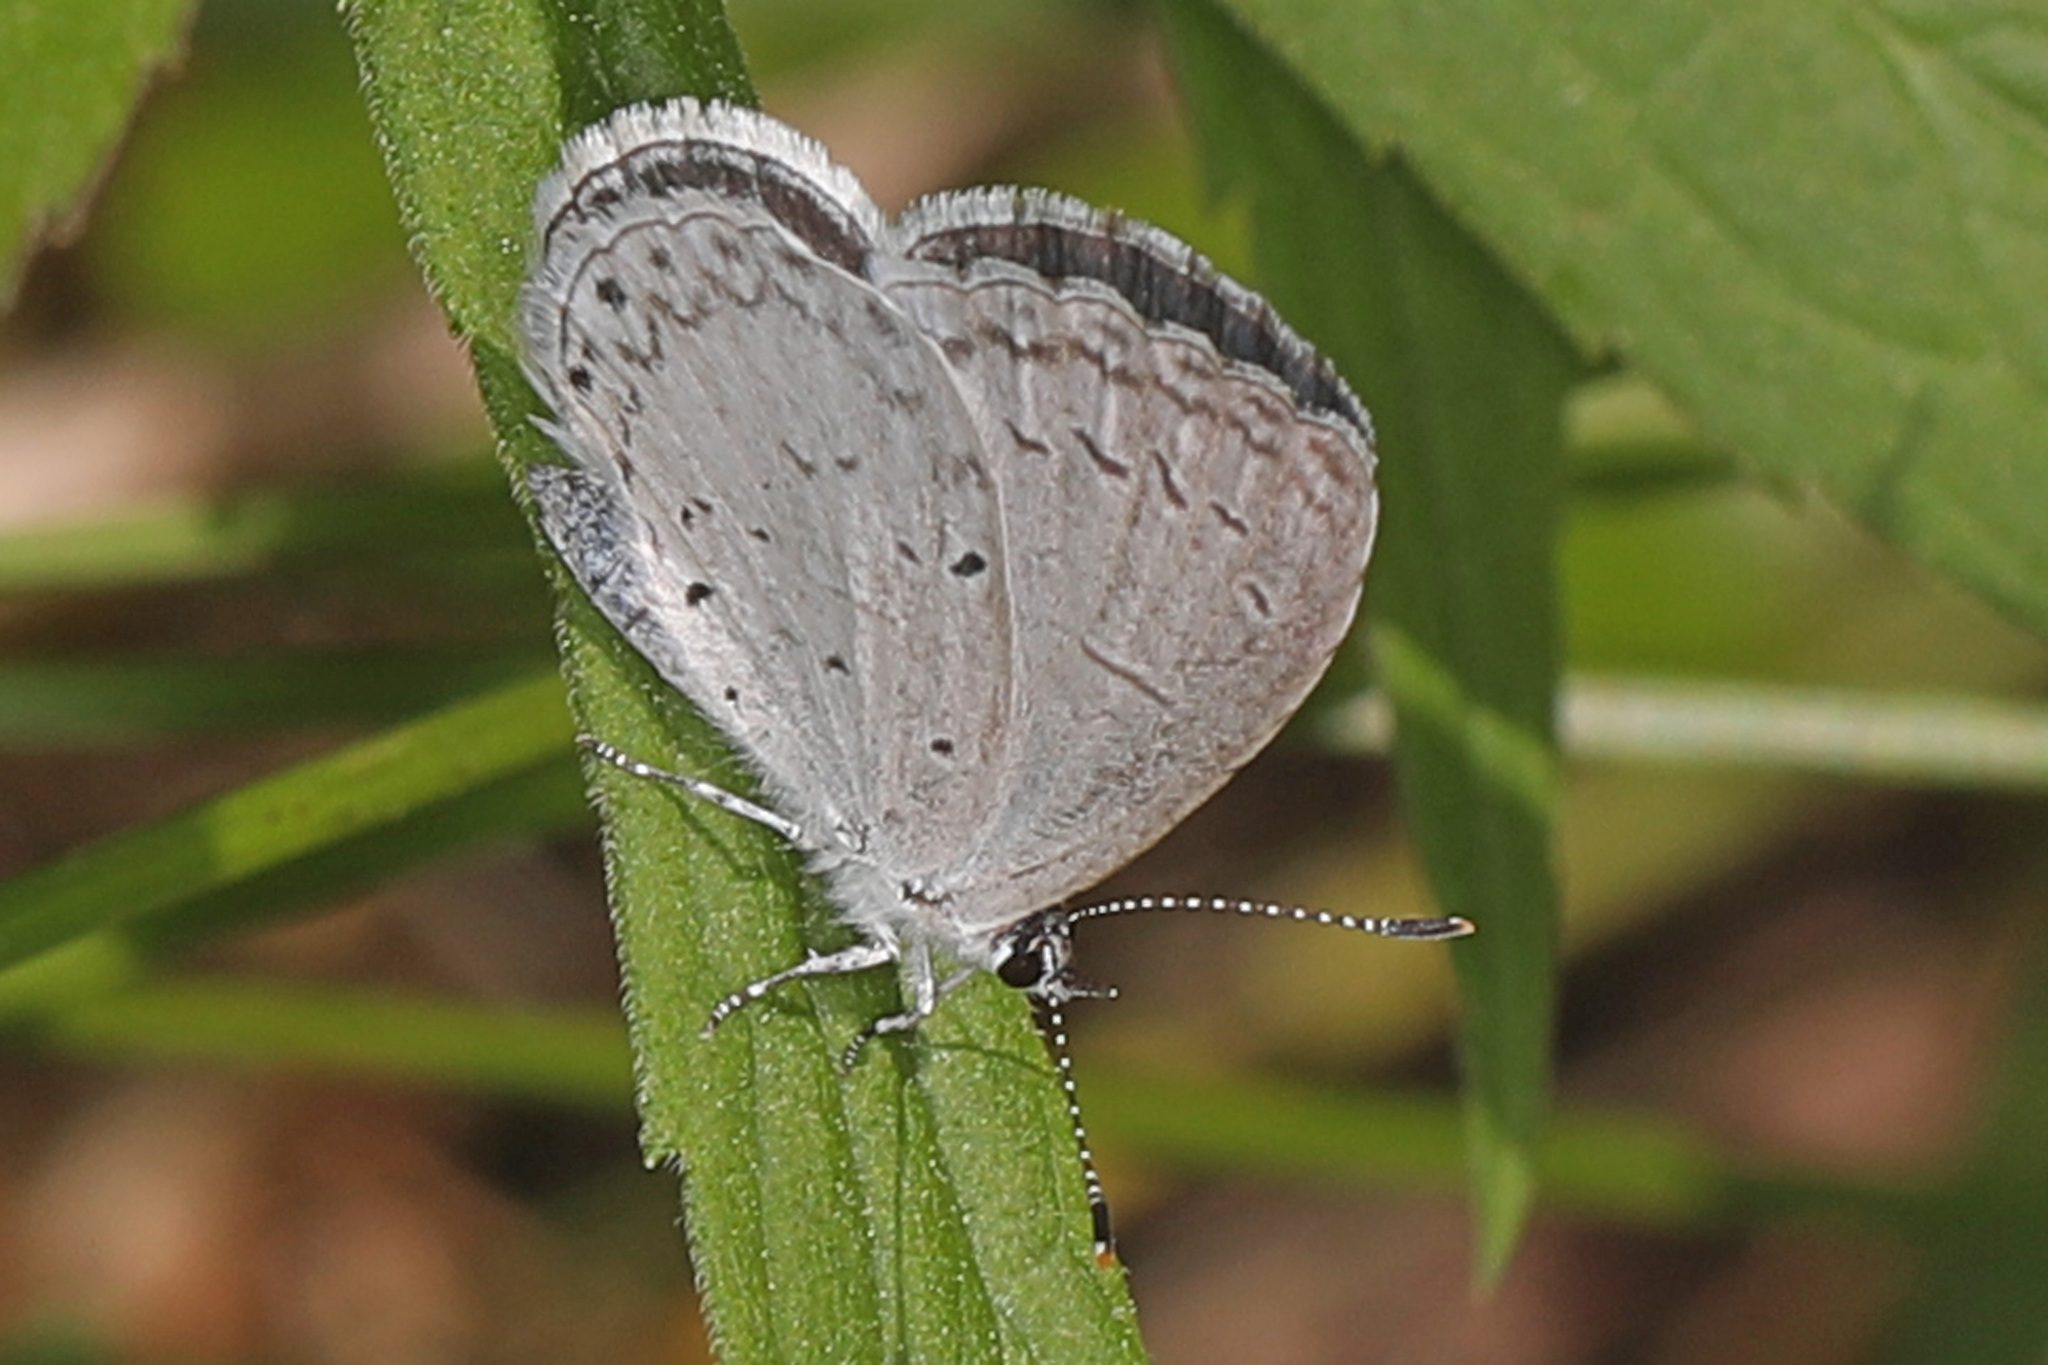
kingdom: Animalia
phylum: Arthropoda
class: Insecta
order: Lepidoptera
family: Lycaenidae
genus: Cyaniris
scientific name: Cyaniris neglecta
